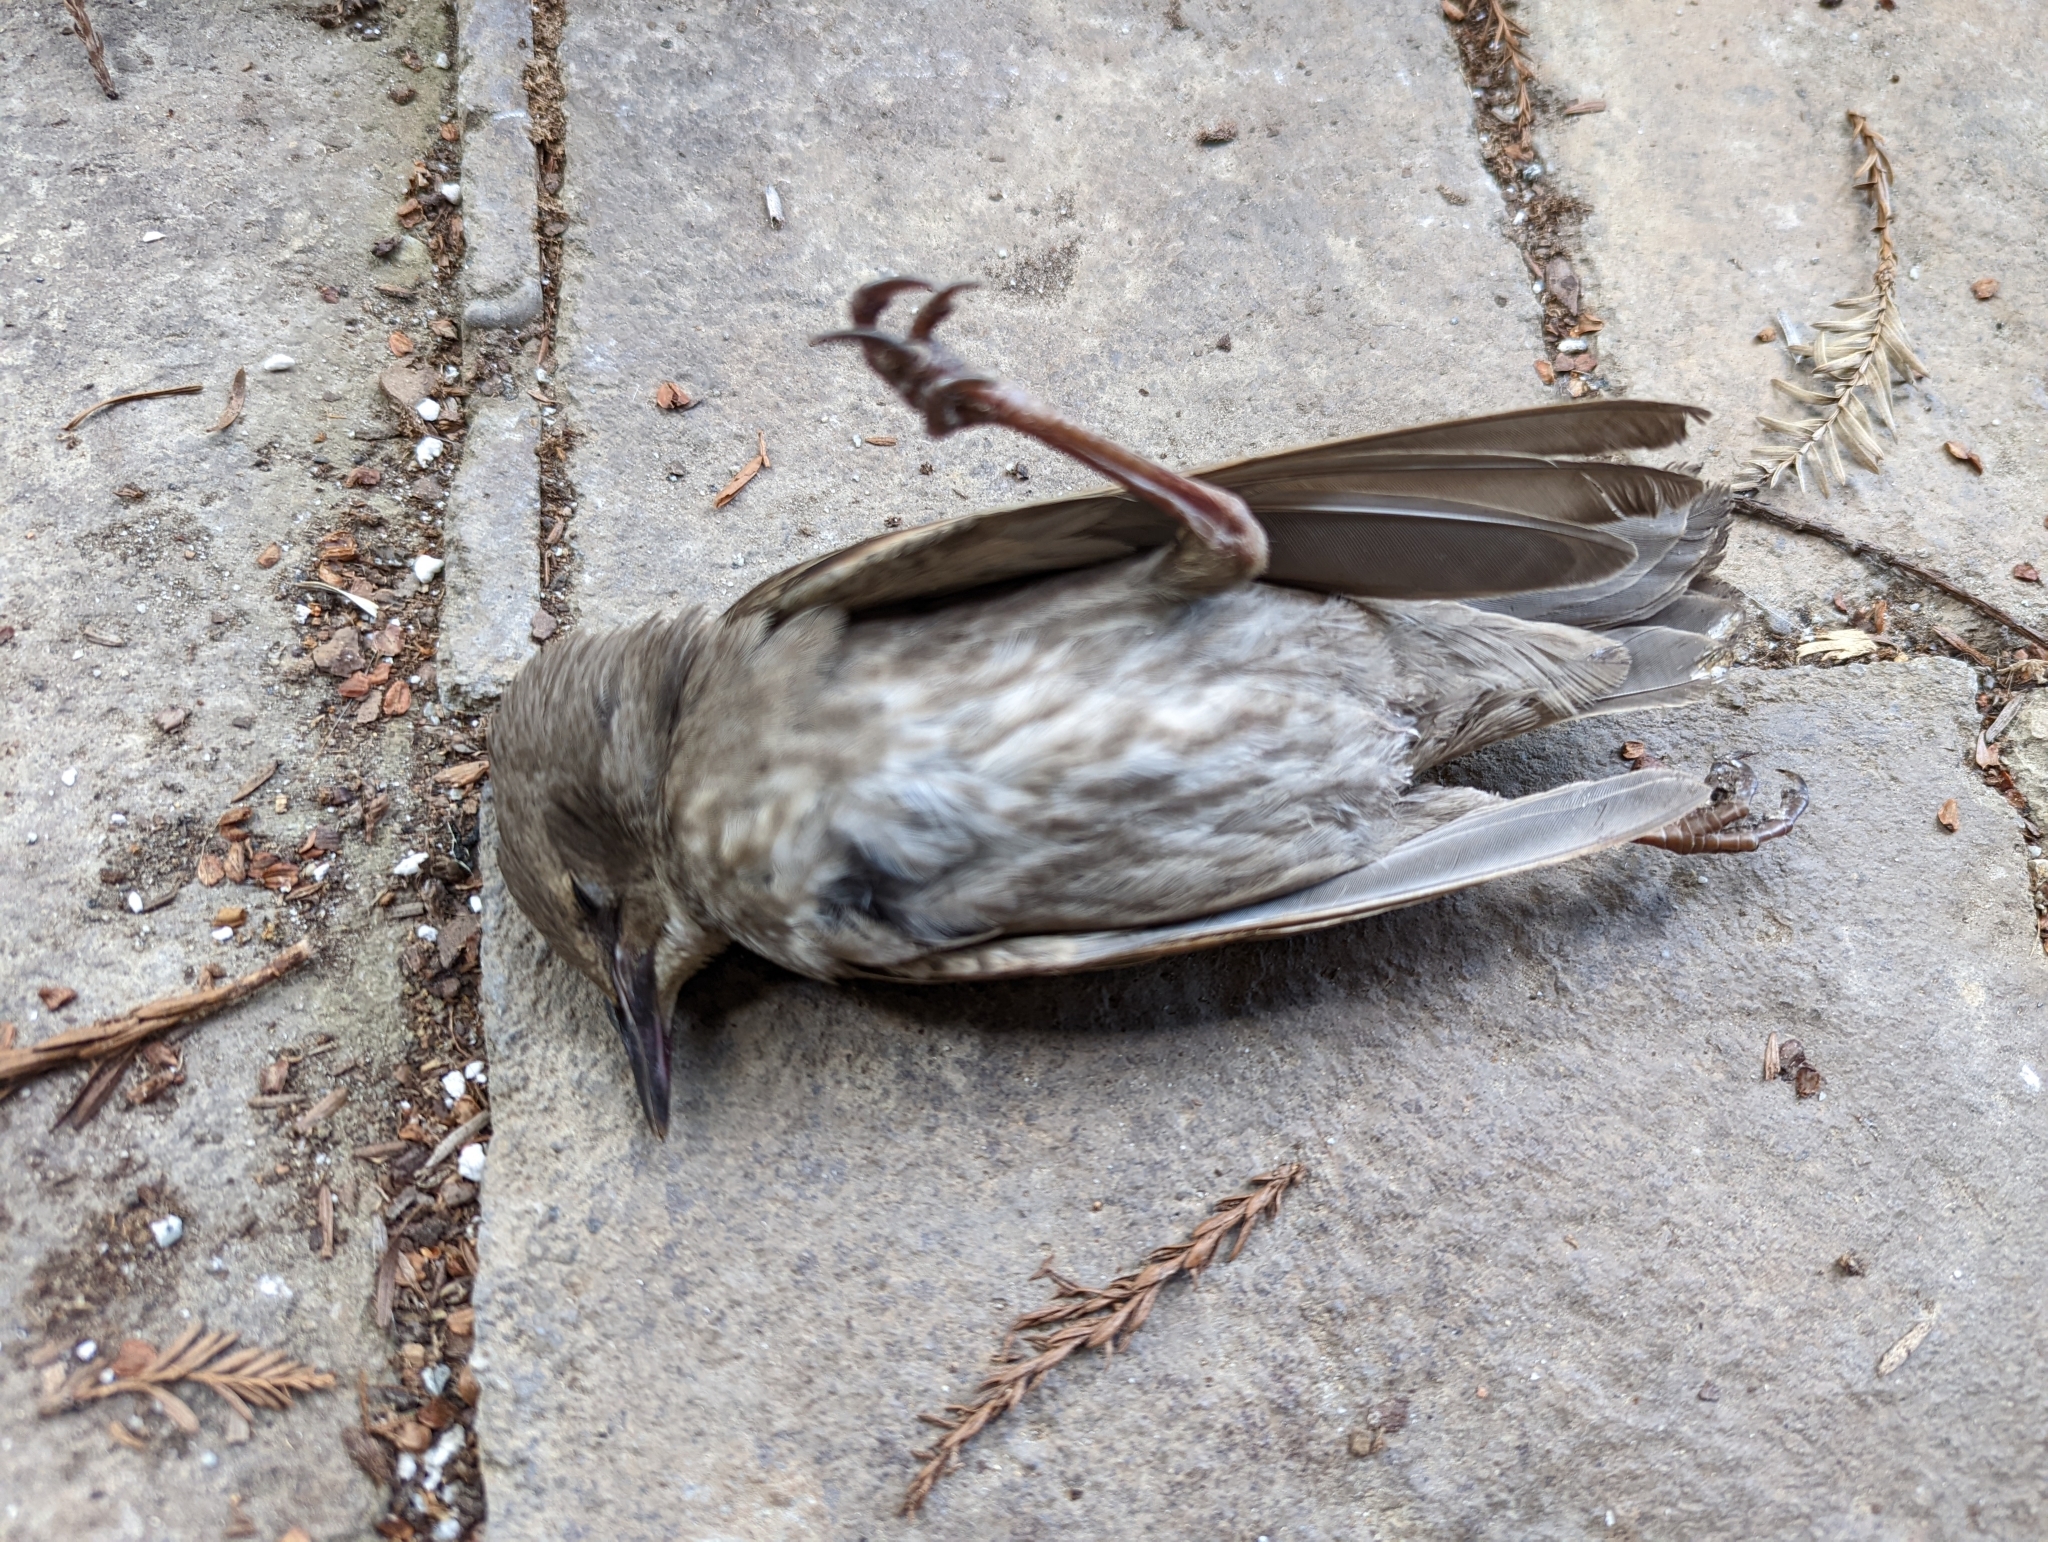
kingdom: Animalia
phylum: Chordata
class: Aves
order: Passeriformes
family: Sturnidae
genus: Sturnus
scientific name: Sturnus vulgaris
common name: Common starling
